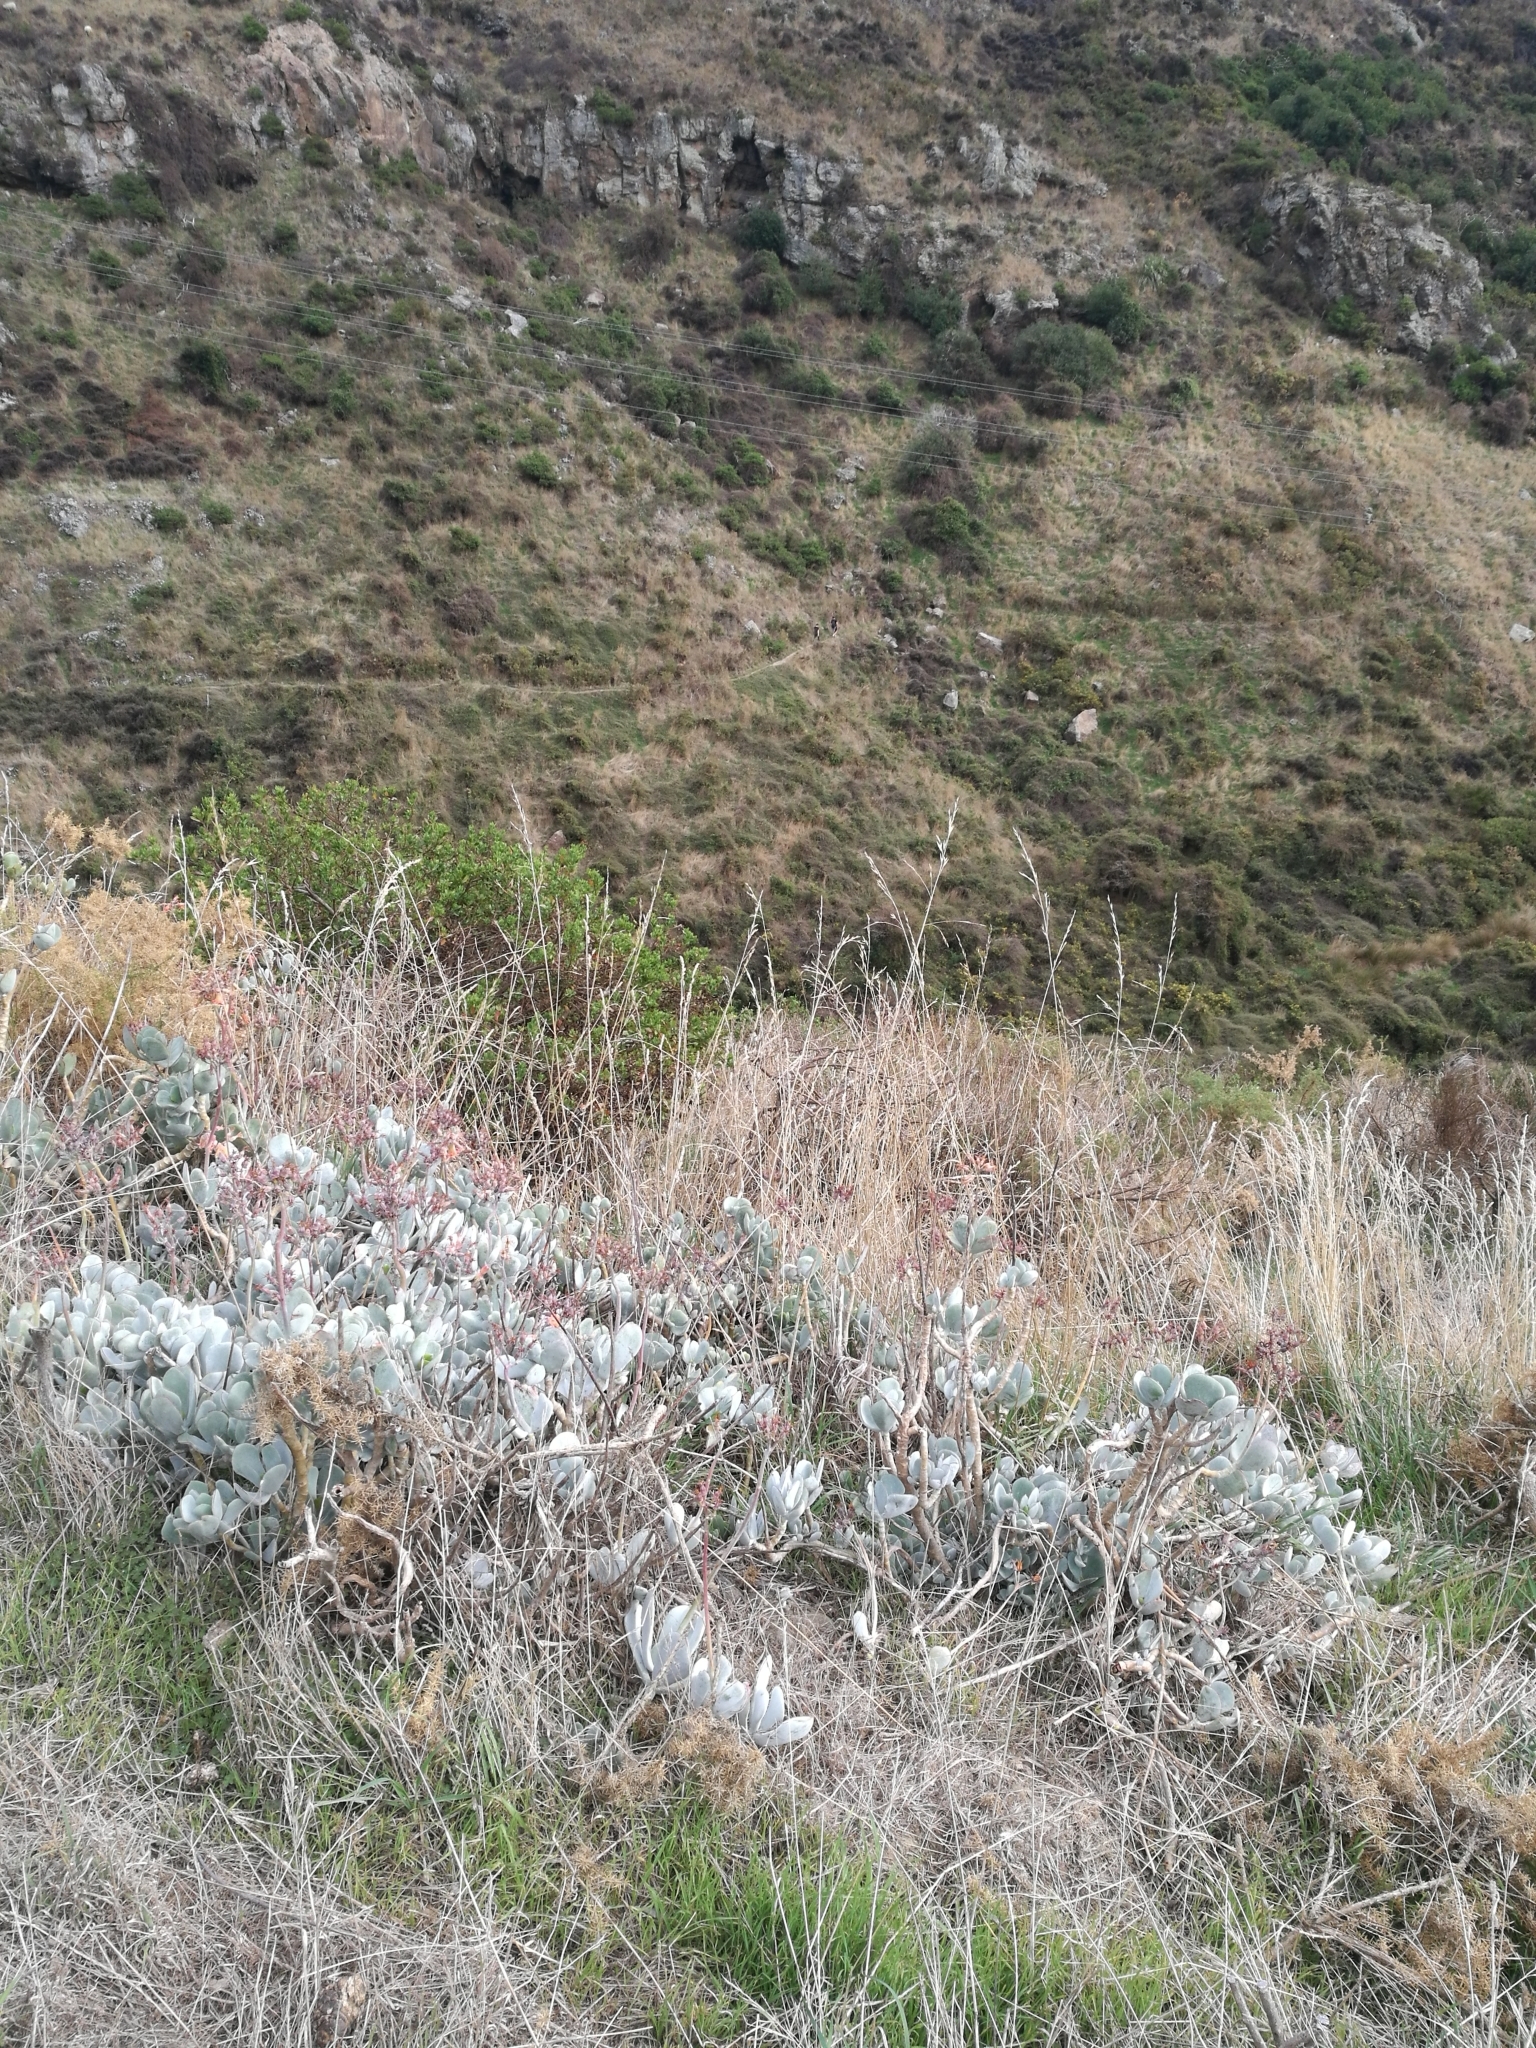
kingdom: Plantae
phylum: Tracheophyta
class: Magnoliopsida
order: Saxifragales
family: Crassulaceae
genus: Cotyledon
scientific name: Cotyledon orbiculata
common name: Pig's ear
